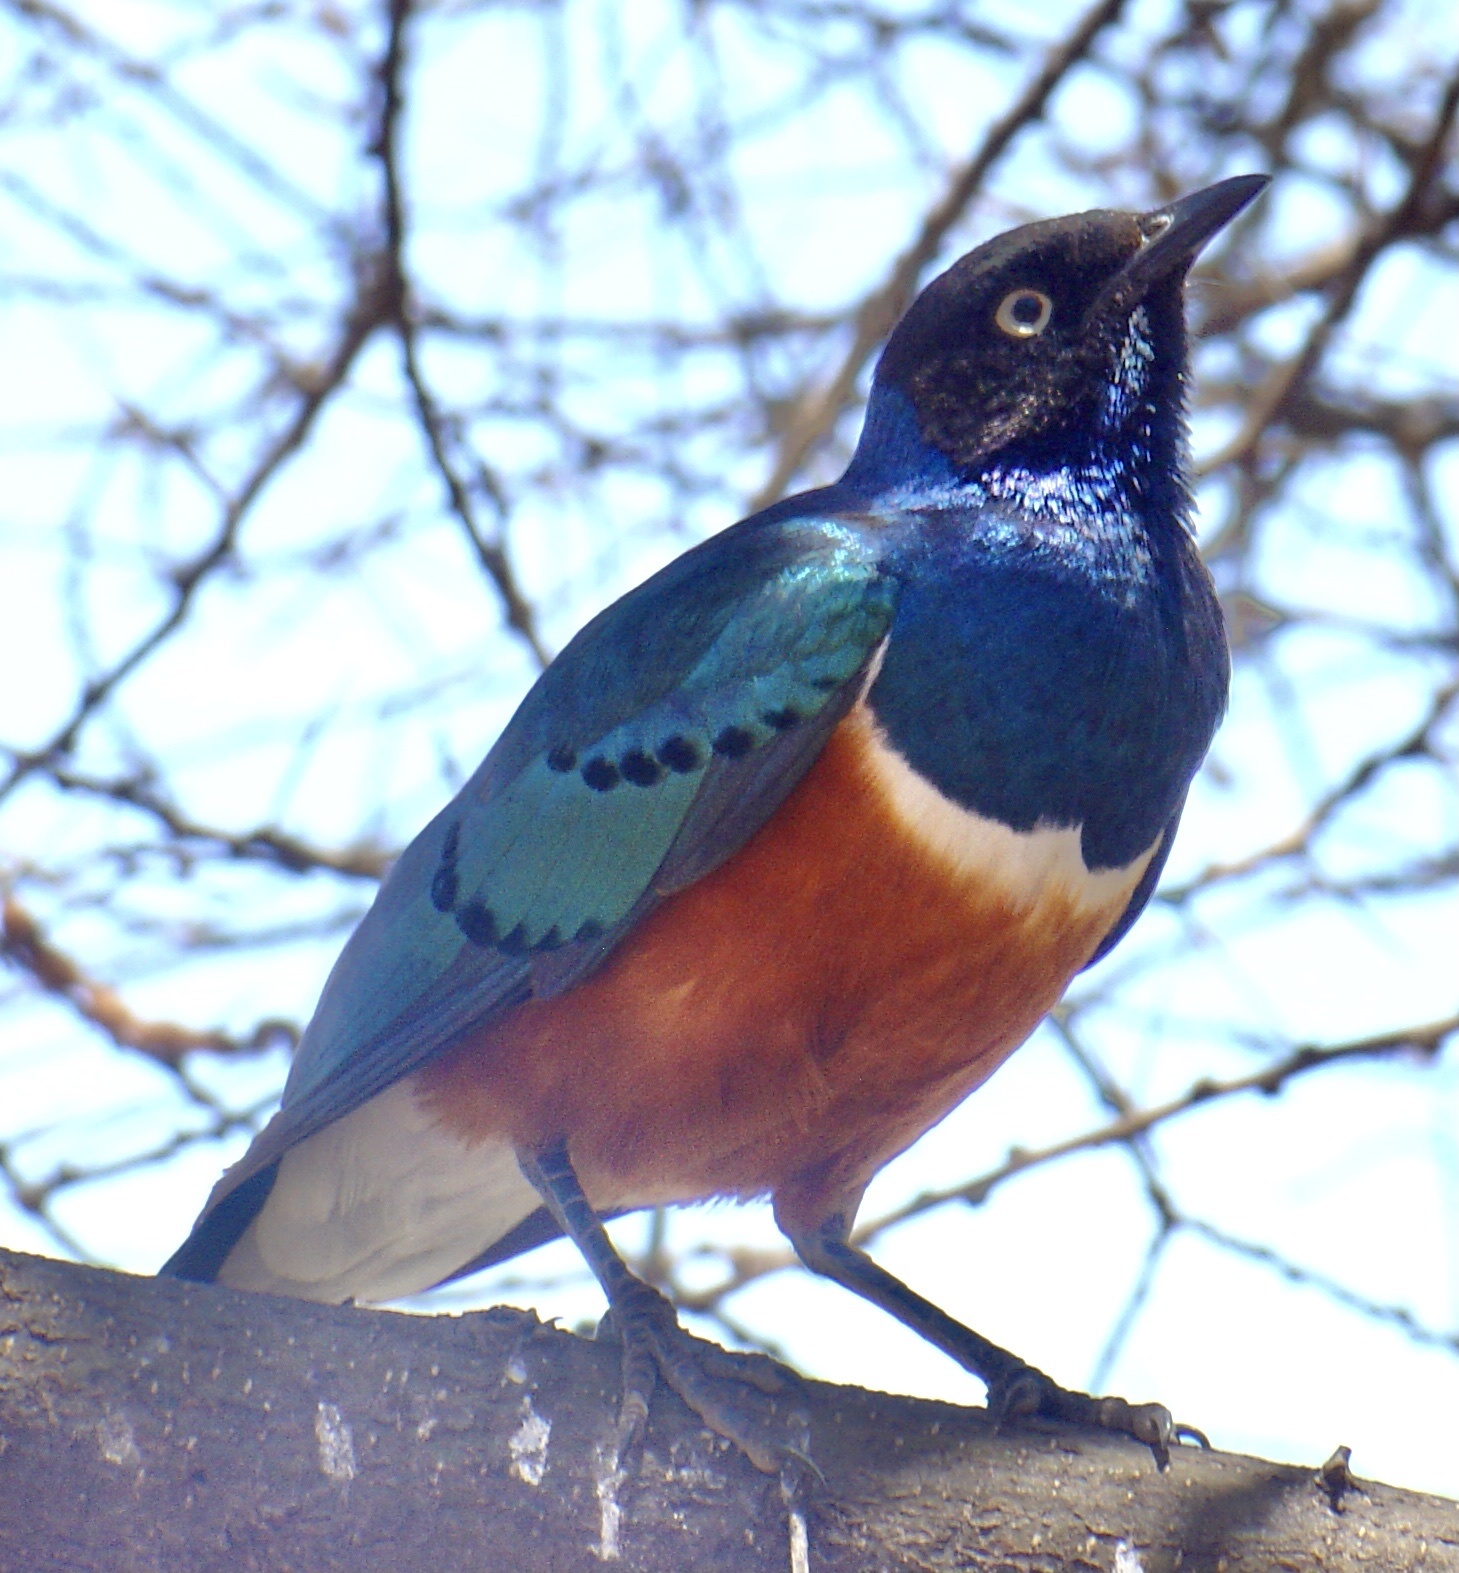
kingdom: Animalia
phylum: Chordata
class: Aves
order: Passeriformes
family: Sturnidae
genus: Lamprotornis
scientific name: Lamprotornis superbus
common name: Superb starling
